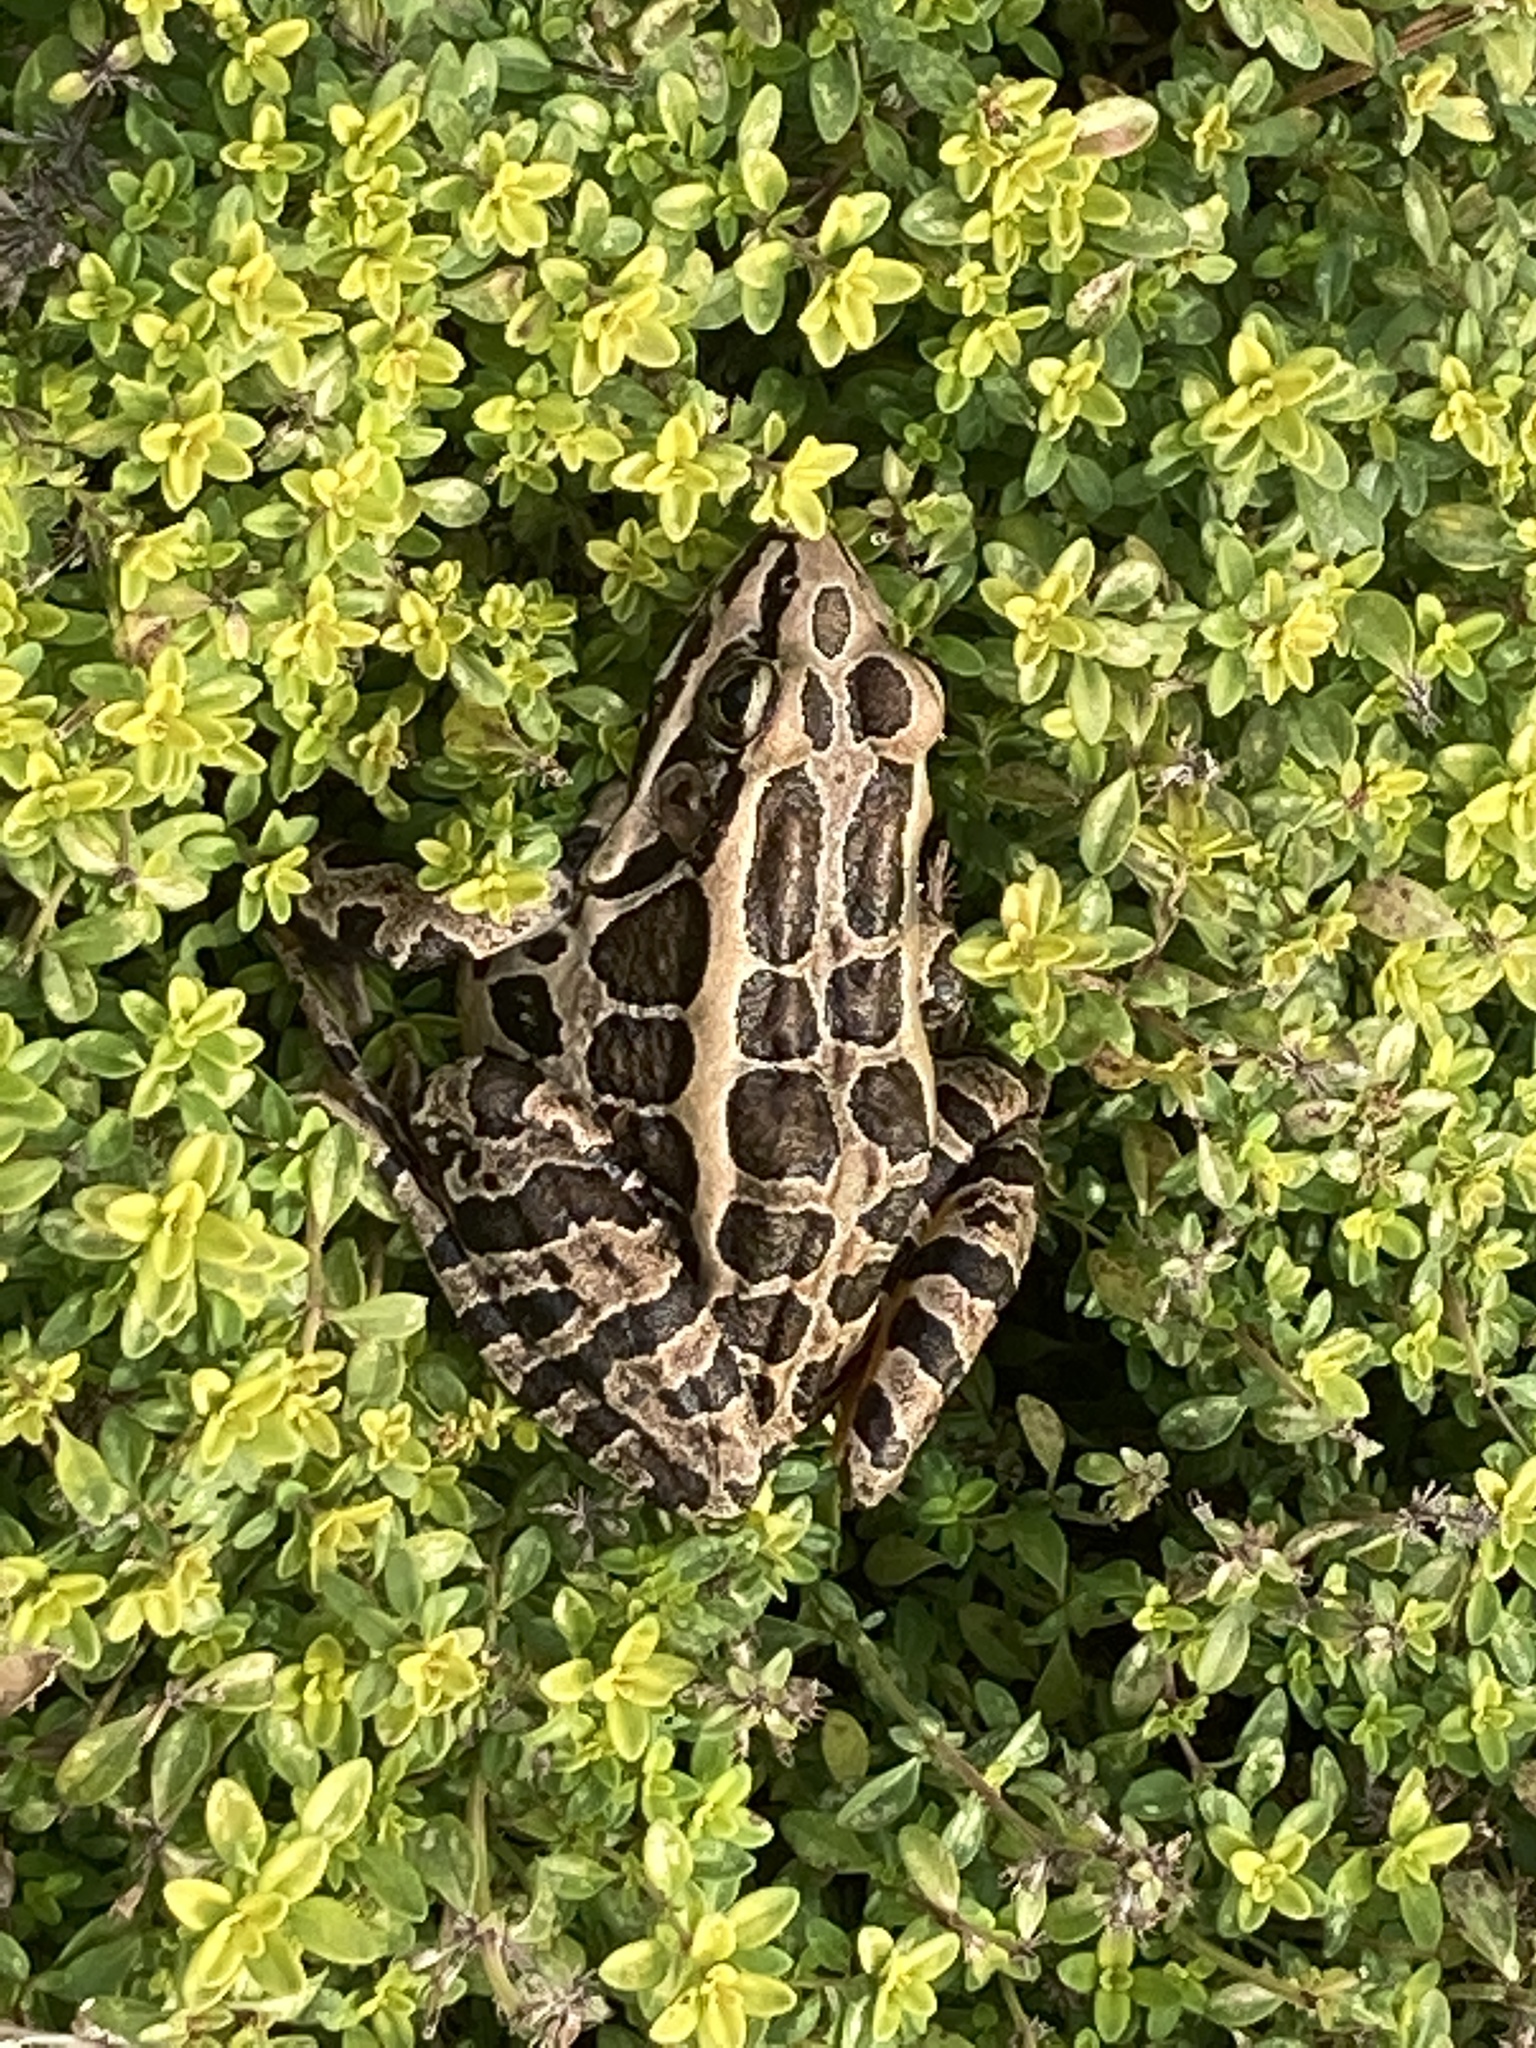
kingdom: Animalia
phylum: Chordata
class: Amphibia
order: Anura
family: Ranidae
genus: Lithobates
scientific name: Lithobates palustris
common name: Pickerel frog
